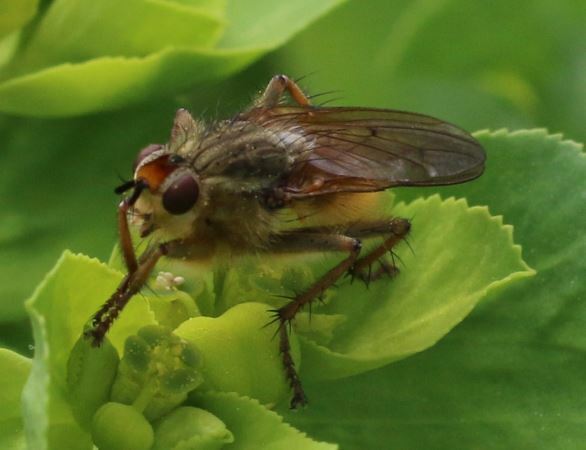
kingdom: Animalia
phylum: Arthropoda
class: Insecta
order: Diptera
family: Scathophagidae
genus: Scathophaga
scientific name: Scathophaga stercoraria
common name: Yellow dung fly
